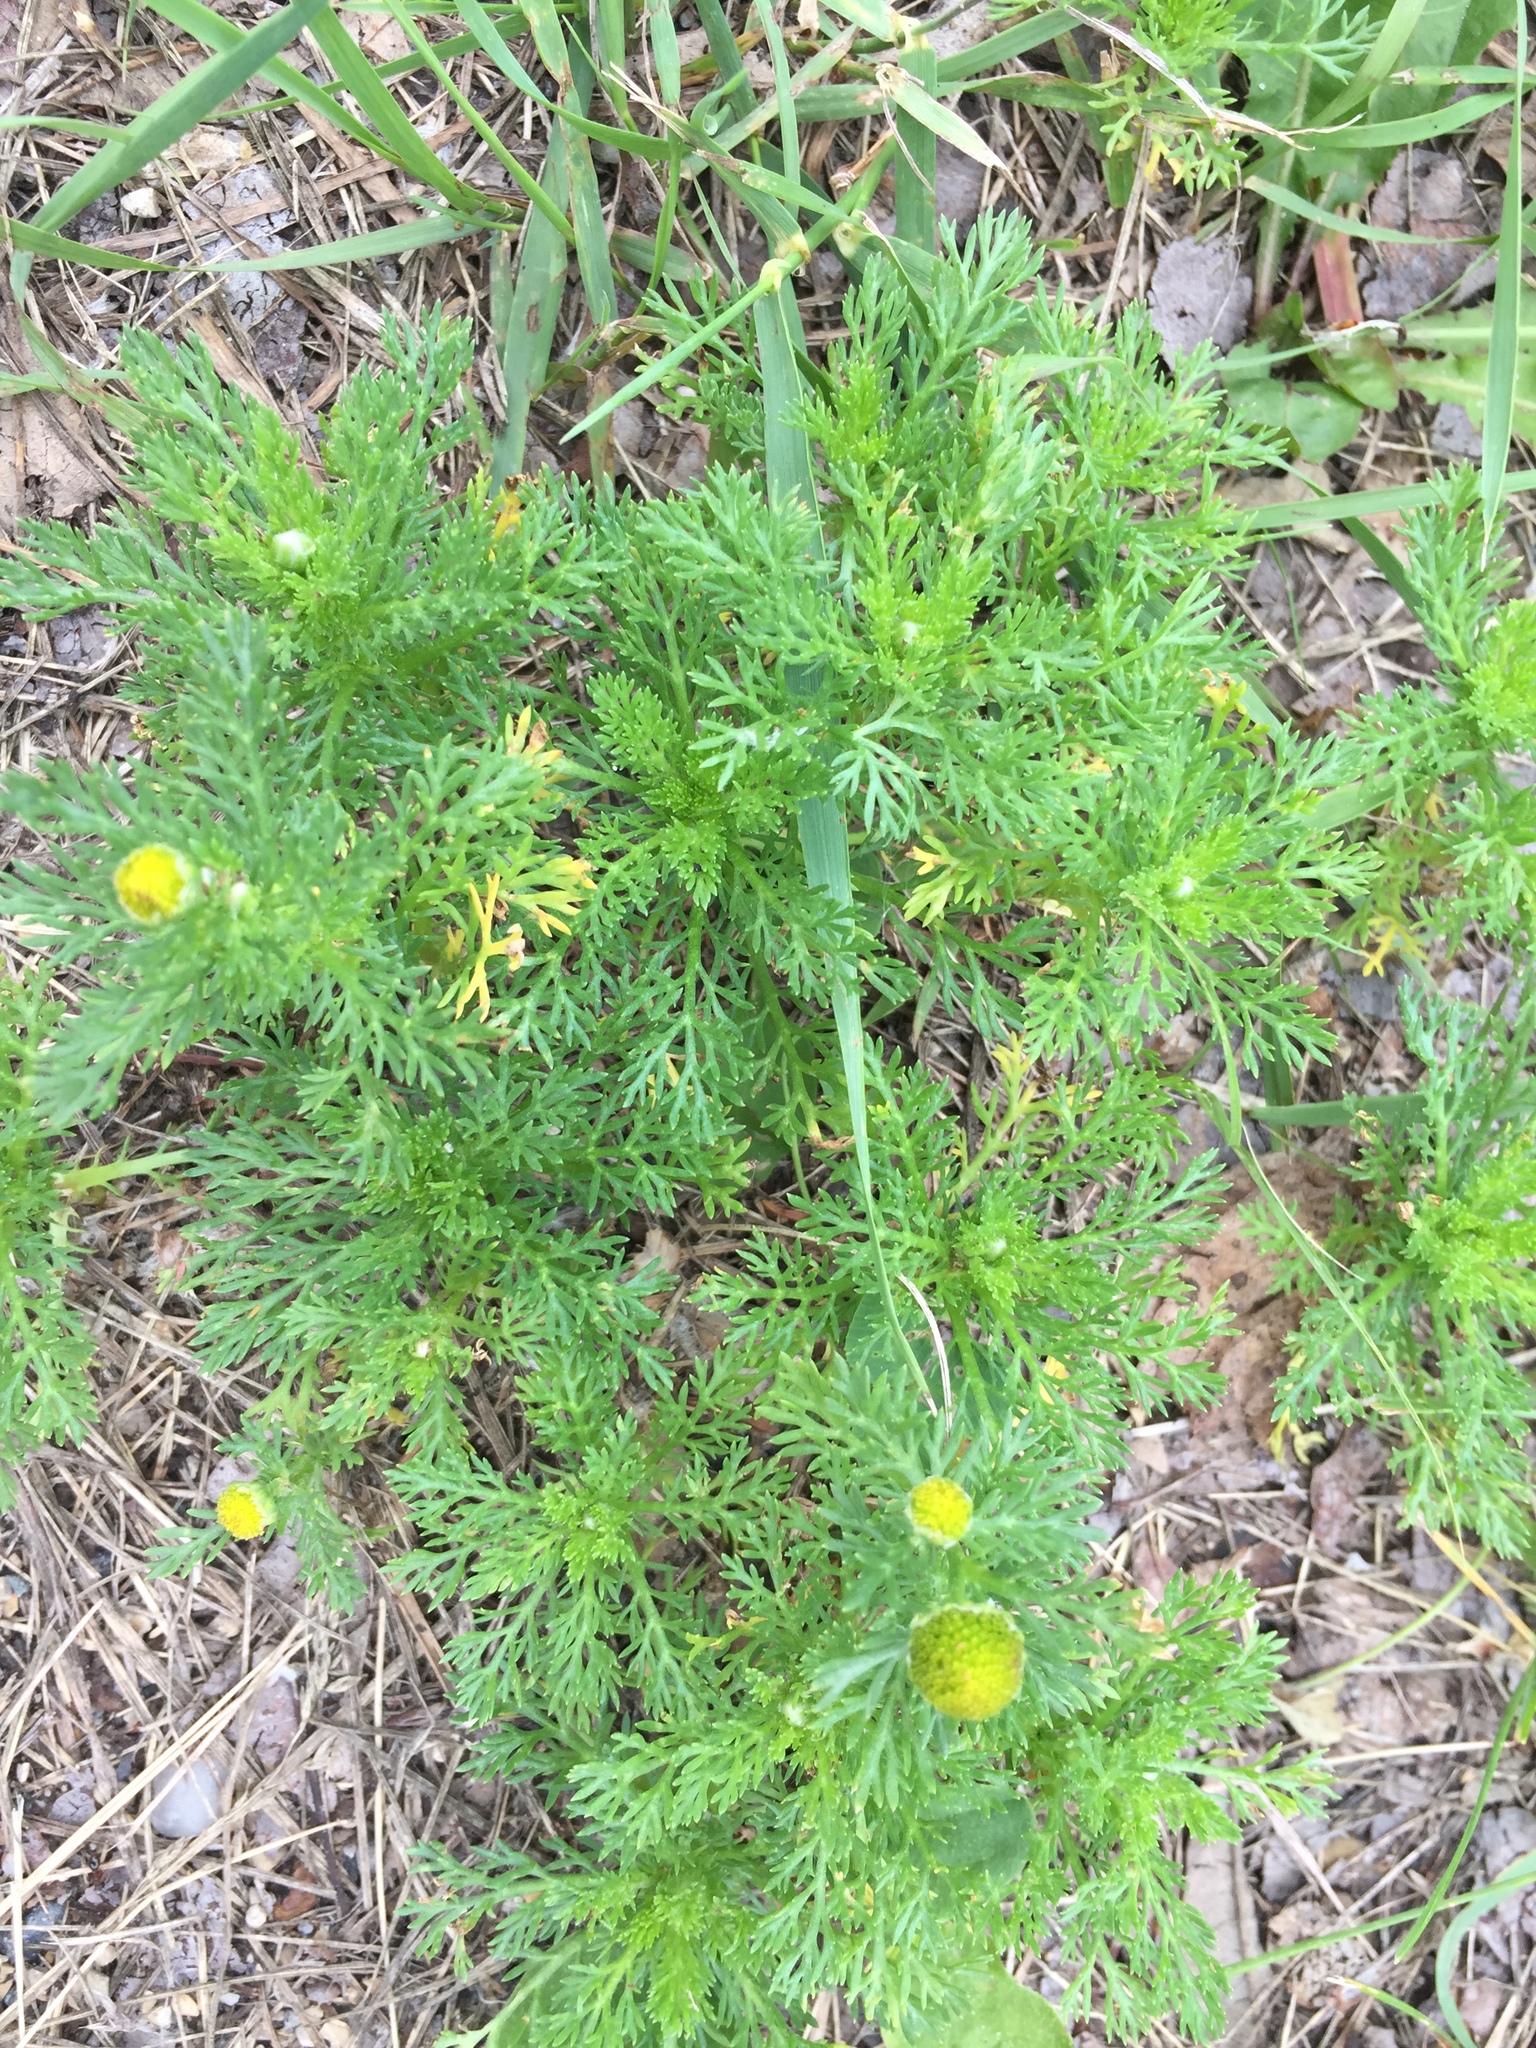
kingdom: Plantae
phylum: Tracheophyta
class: Magnoliopsida
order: Asterales
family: Asteraceae
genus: Matricaria
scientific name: Matricaria discoidea
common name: Disc mayweed
